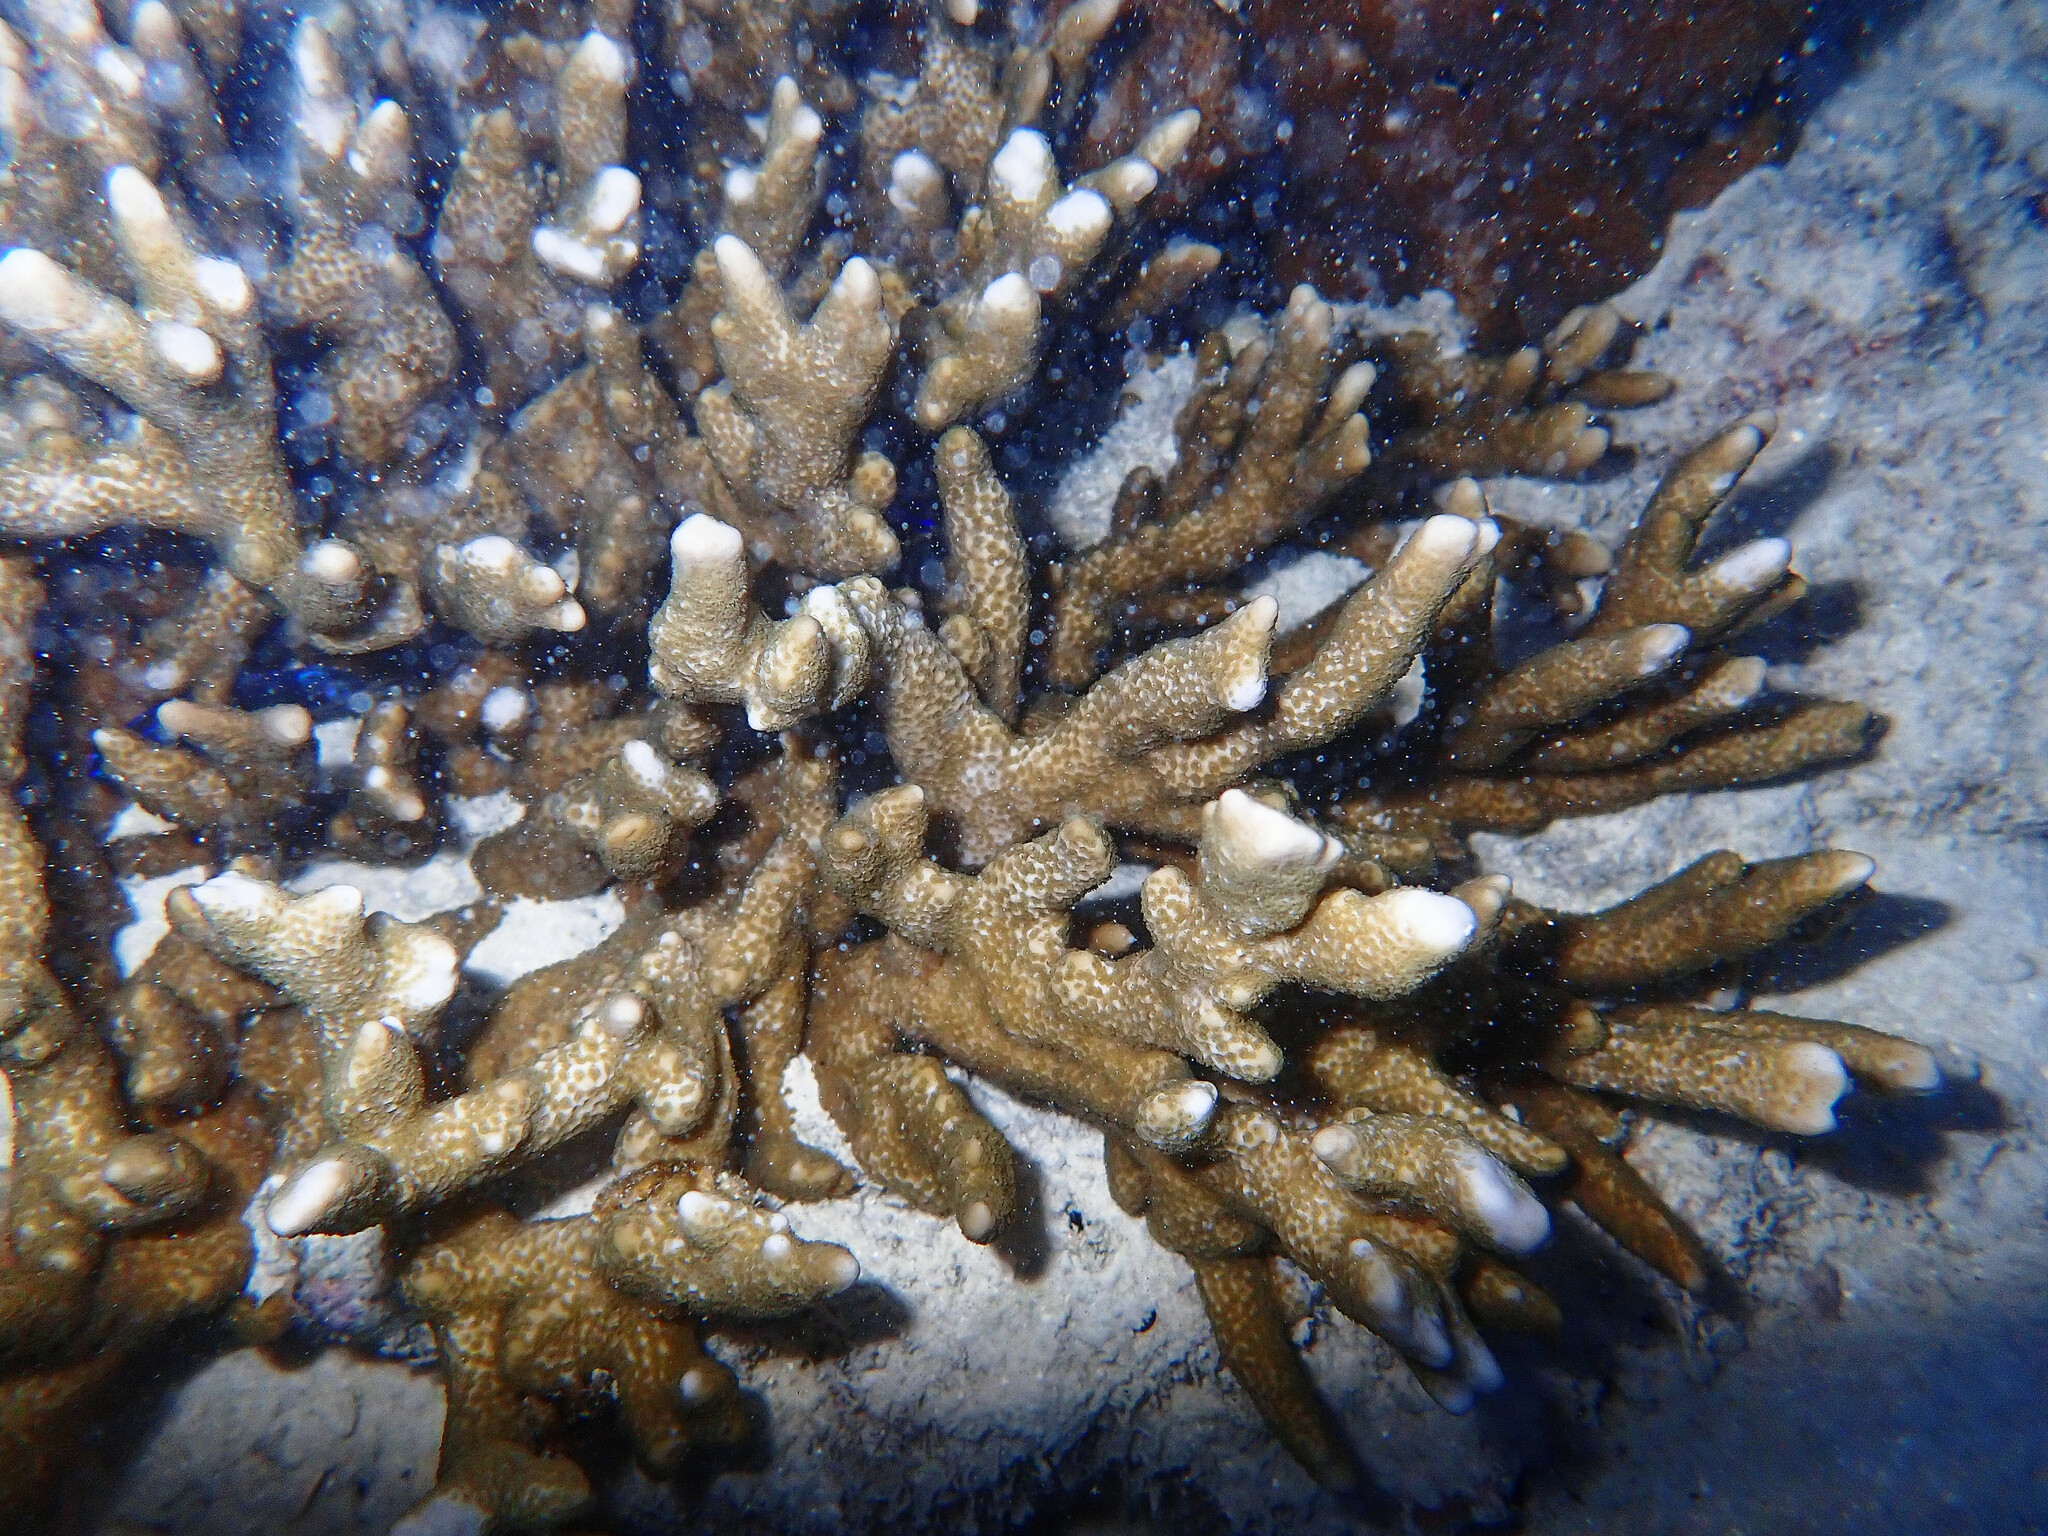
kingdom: Animalia
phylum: Cnidaria
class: Anthozoa
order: Scleractinia
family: Acroporidae
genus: Montipora
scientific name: Montipora digitata
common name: Pore coral
